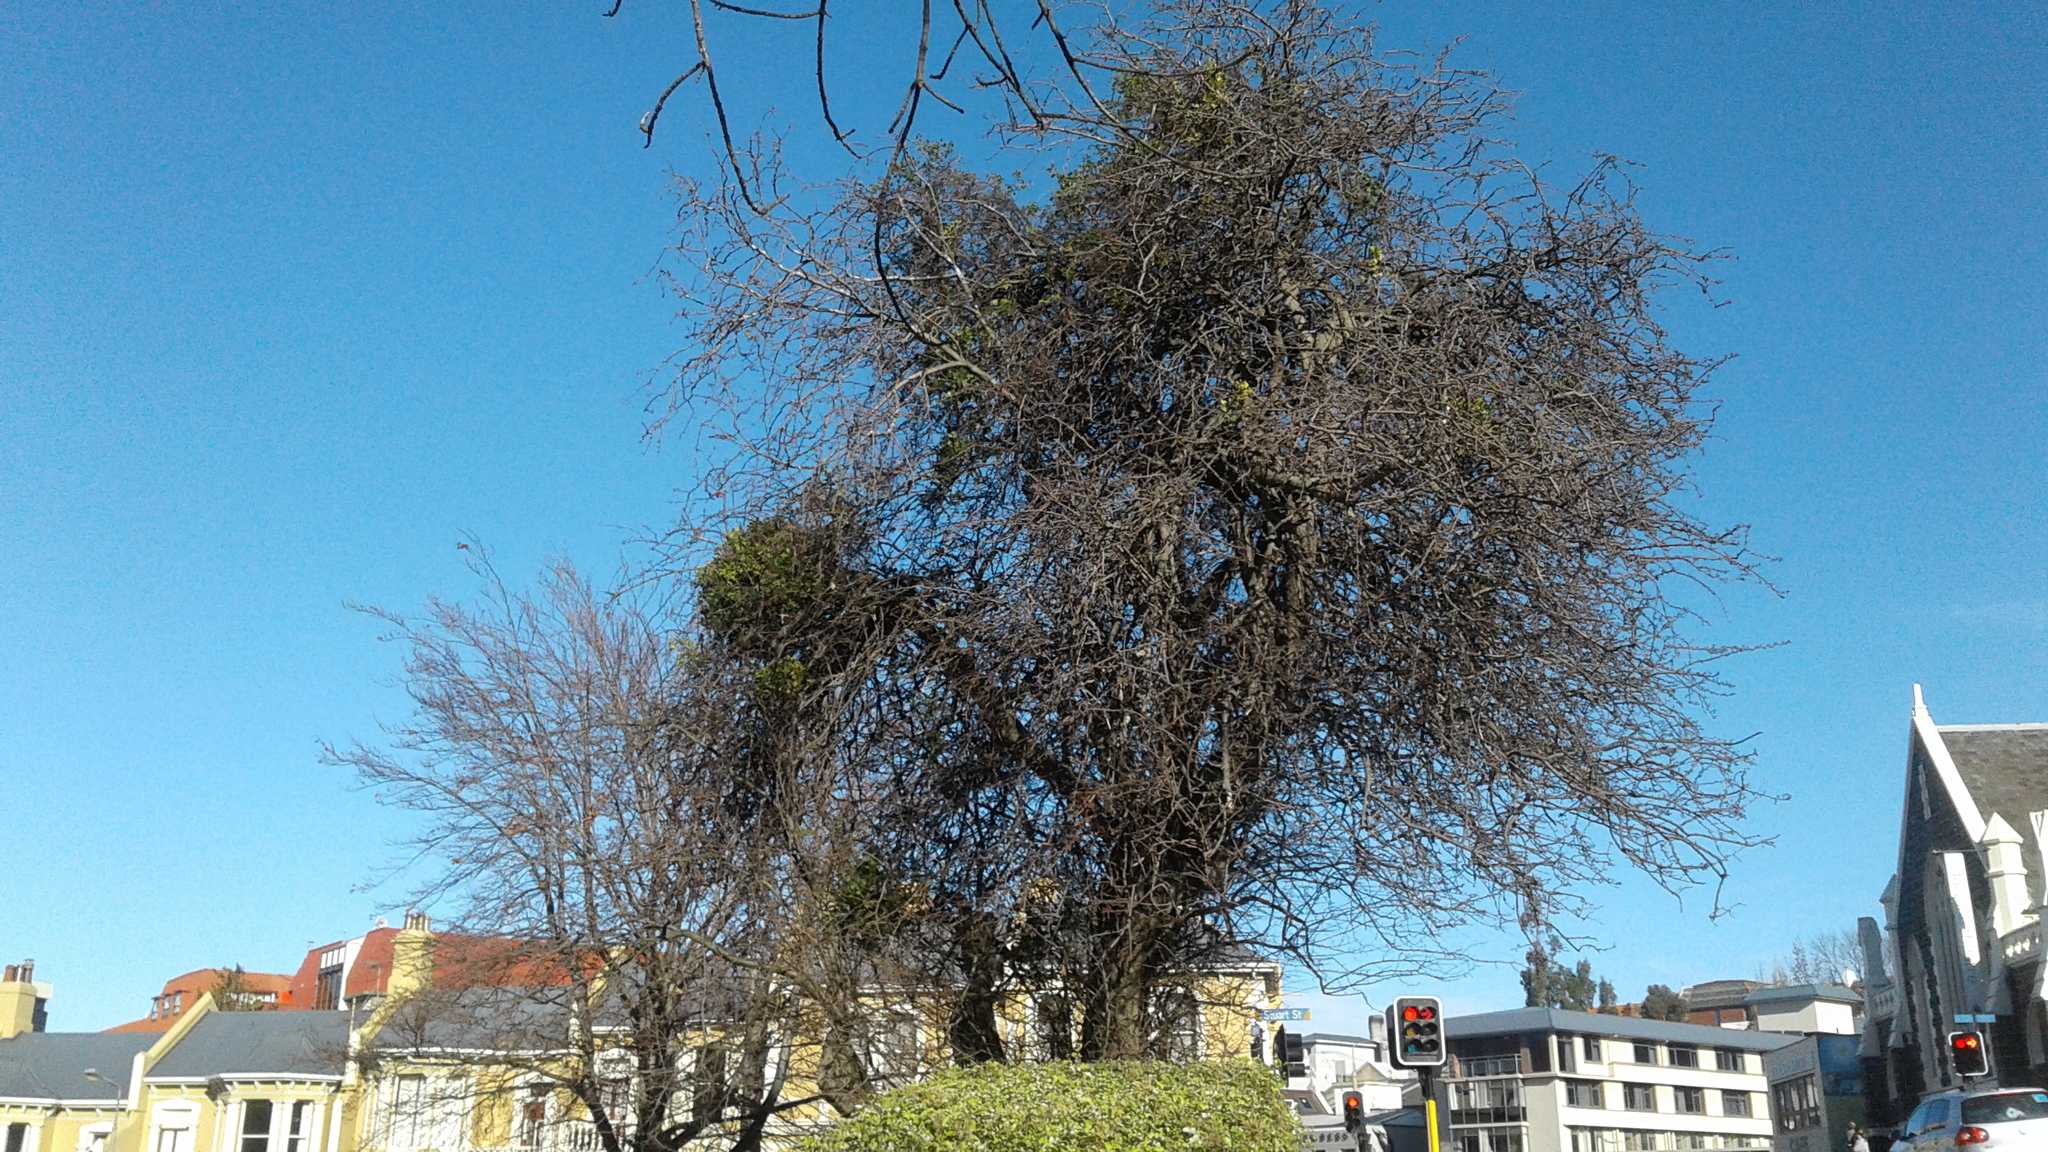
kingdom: Plantae
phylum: Tracheophyta
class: Magnoliopsida
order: Santalales
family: Loranthaceae
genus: Ileostylus
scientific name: Ileostylus micranthus
